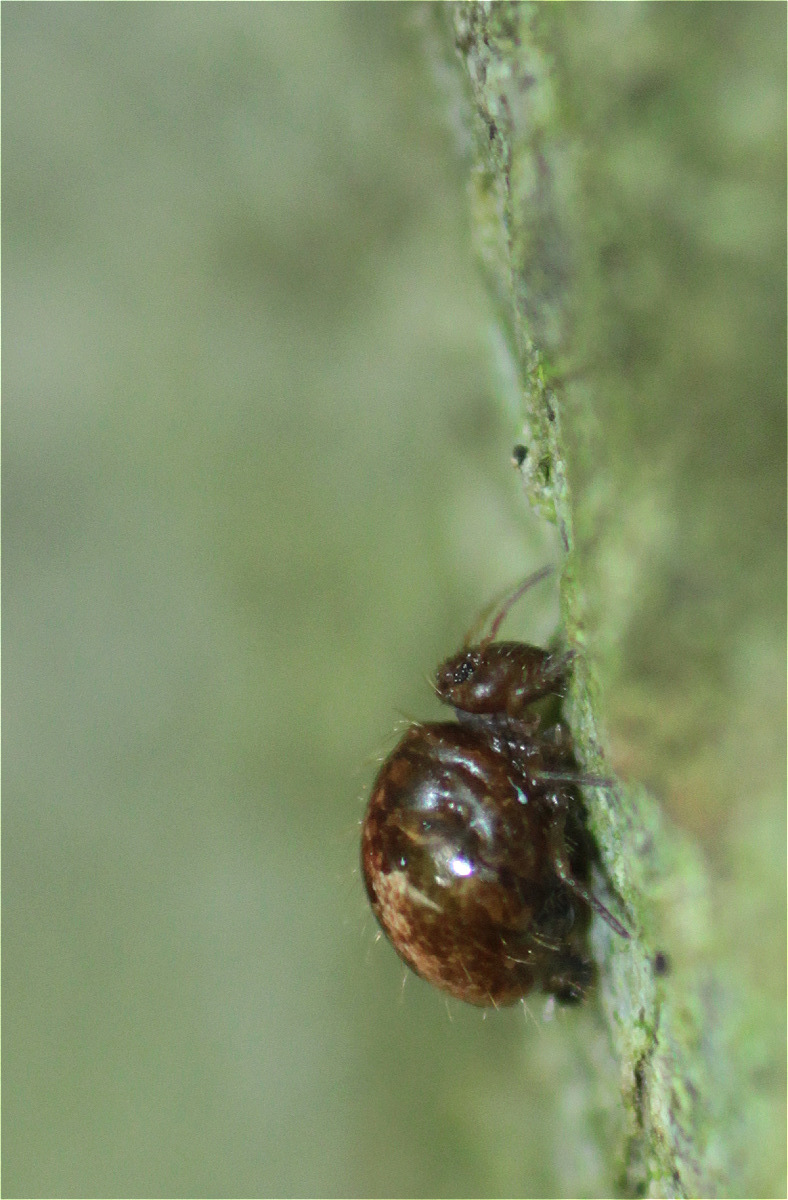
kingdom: Animalia
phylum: Arthropoda
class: Collembola
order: Symphypleona
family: Sminthuridae
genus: Allacma
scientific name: Allacma fusca
